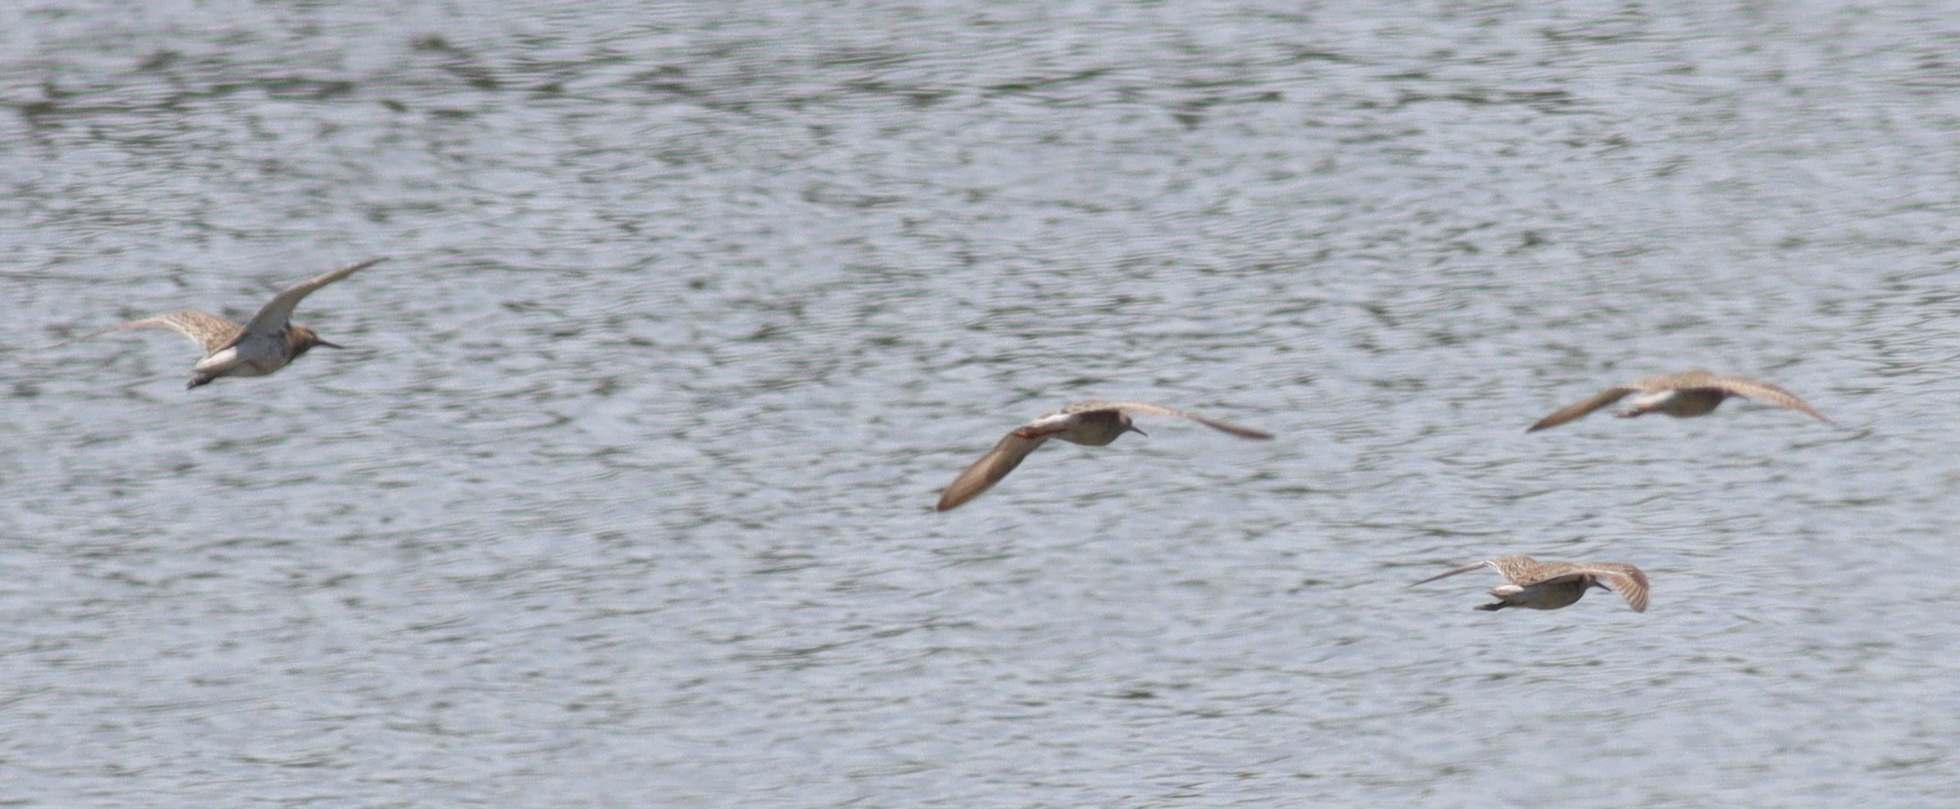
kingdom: Animalia
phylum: Chordata
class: Aves
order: Charadriiformes
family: Scolopacidae
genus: Calidris
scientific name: Calidris pugnax
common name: Ruff
